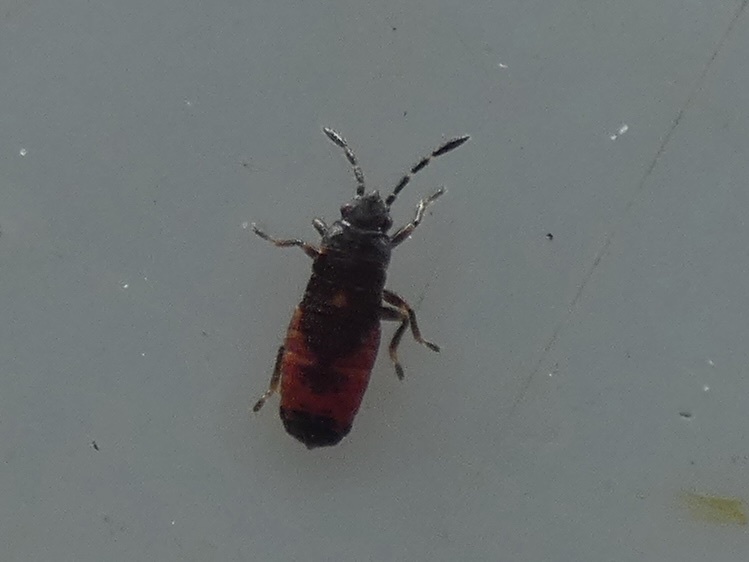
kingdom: Animalia
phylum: Arthropoda
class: Insecta
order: Hemiptera
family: Blissidae
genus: Ischnodemus
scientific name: Ischnodemus sabuleti
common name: European cinchbug
